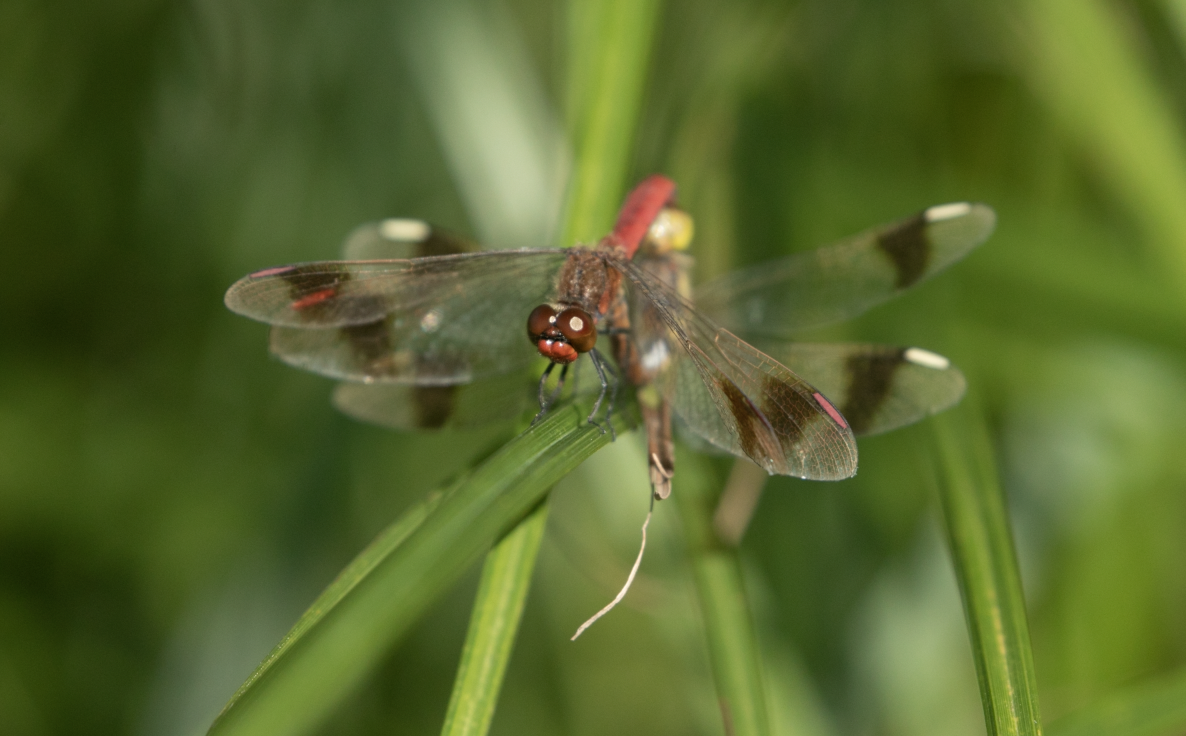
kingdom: Animalia
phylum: Arthropoda
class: Insecta
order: Odonata
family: Libellulidae
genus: Sympetrum
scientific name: Sympetrum pedemontanum
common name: Banded darter
